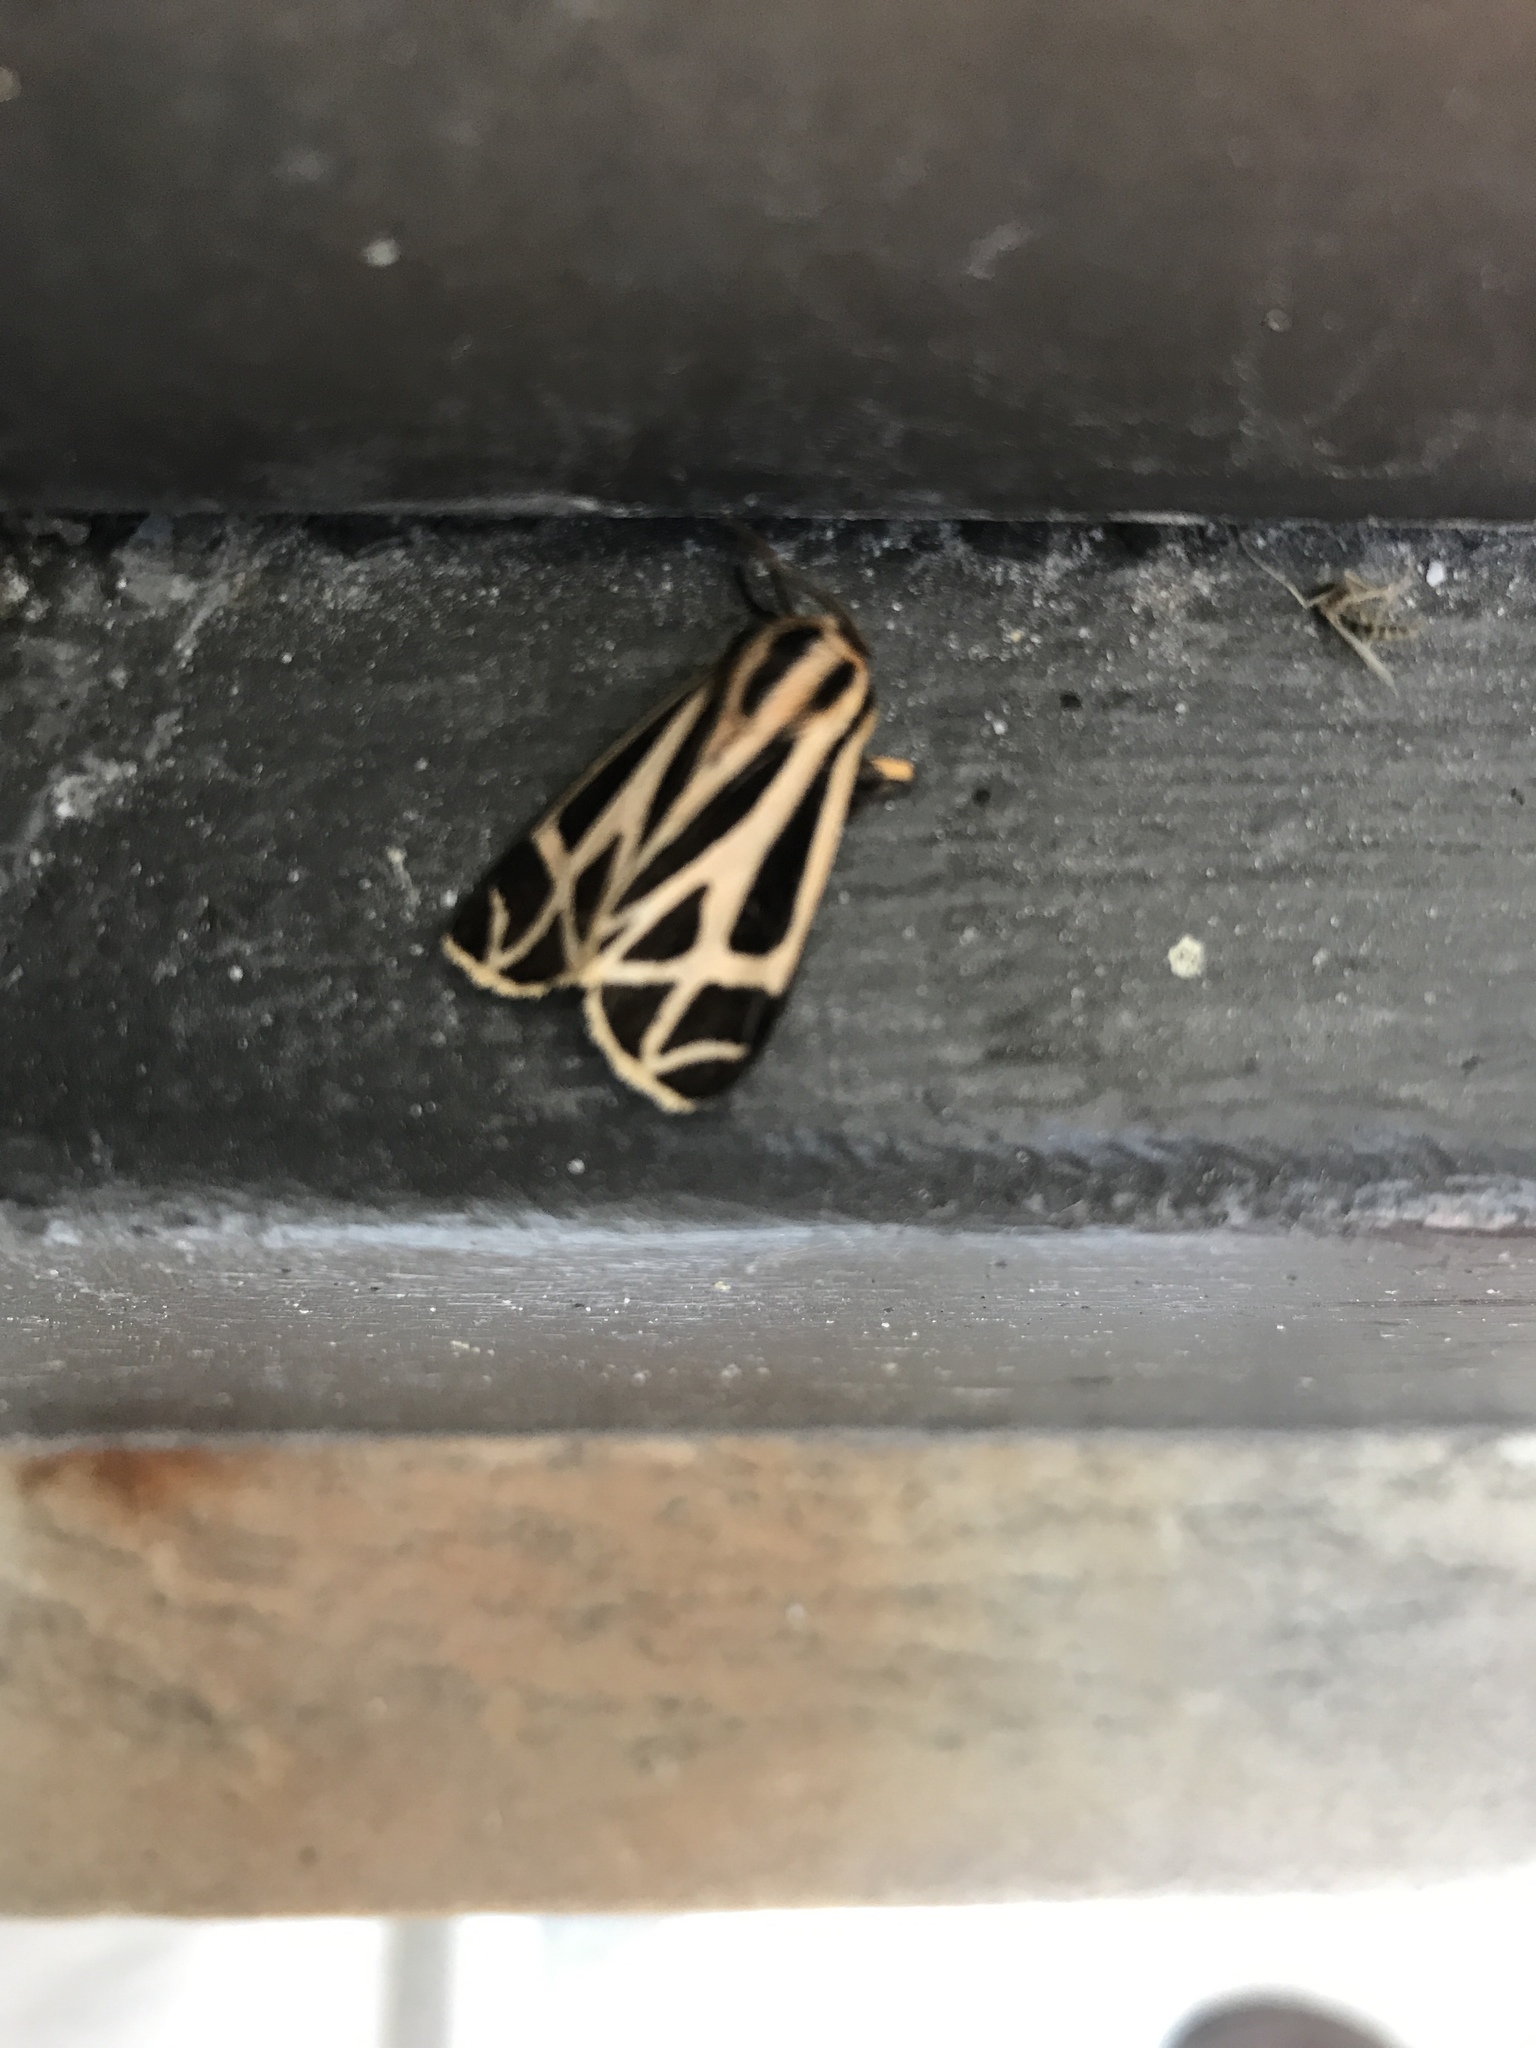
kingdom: Animalia
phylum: Arthropoda
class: Insecta
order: Lepidoptera
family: Erebidae
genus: Apantesis
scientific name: Apantesis phalerata
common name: Harnessed tiger moth
